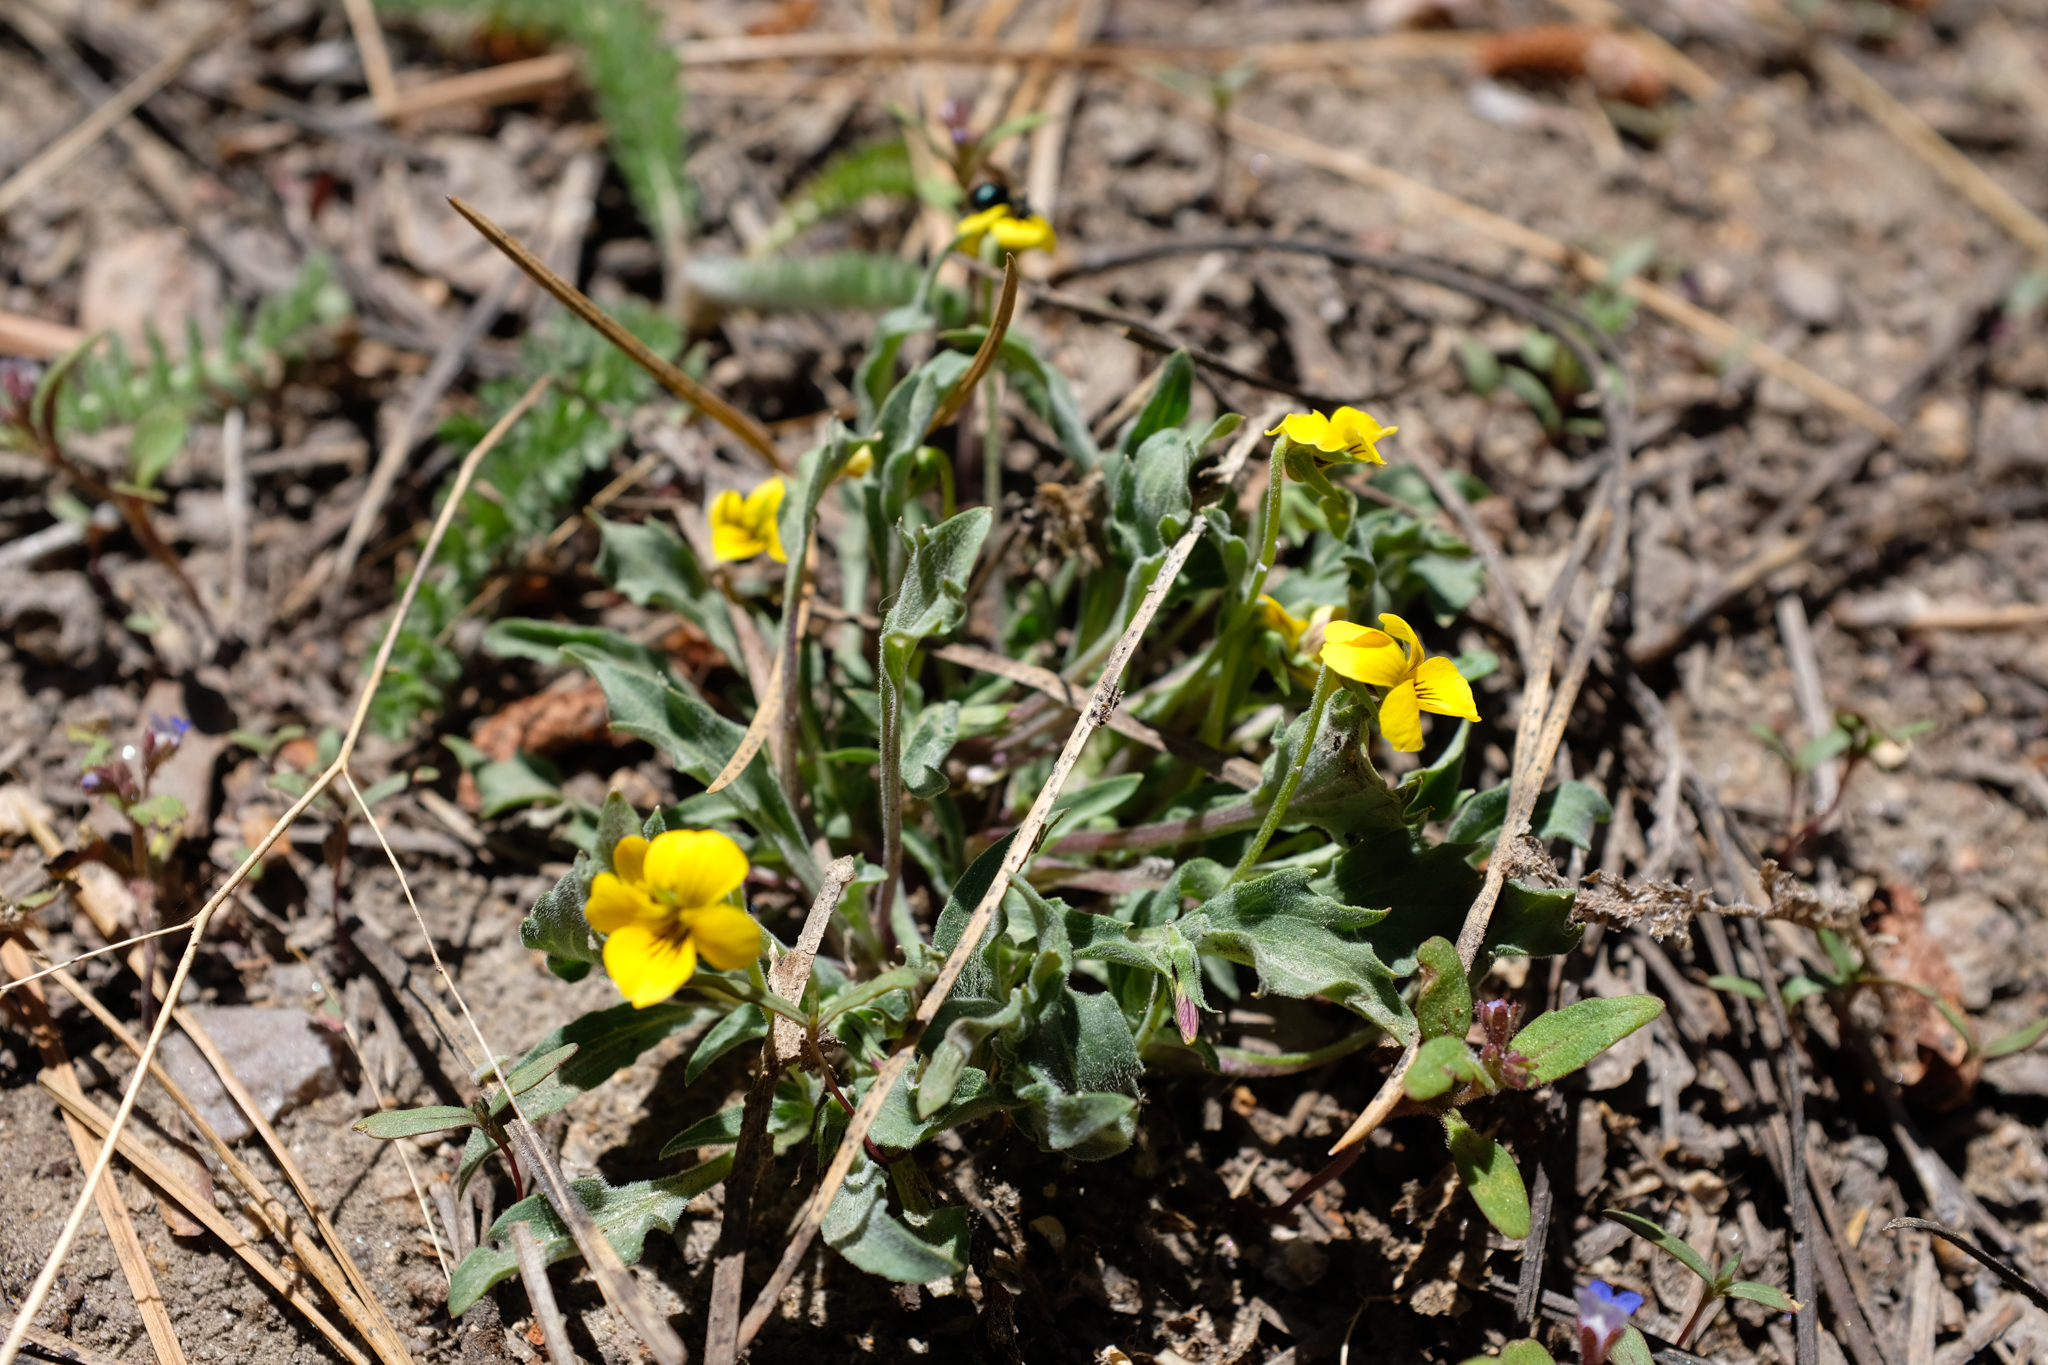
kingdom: Plantae
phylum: Tracheophyta
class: Magnoliopsida
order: Malpighiales
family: Violaceae
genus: Viola
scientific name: Viola pinetorum
